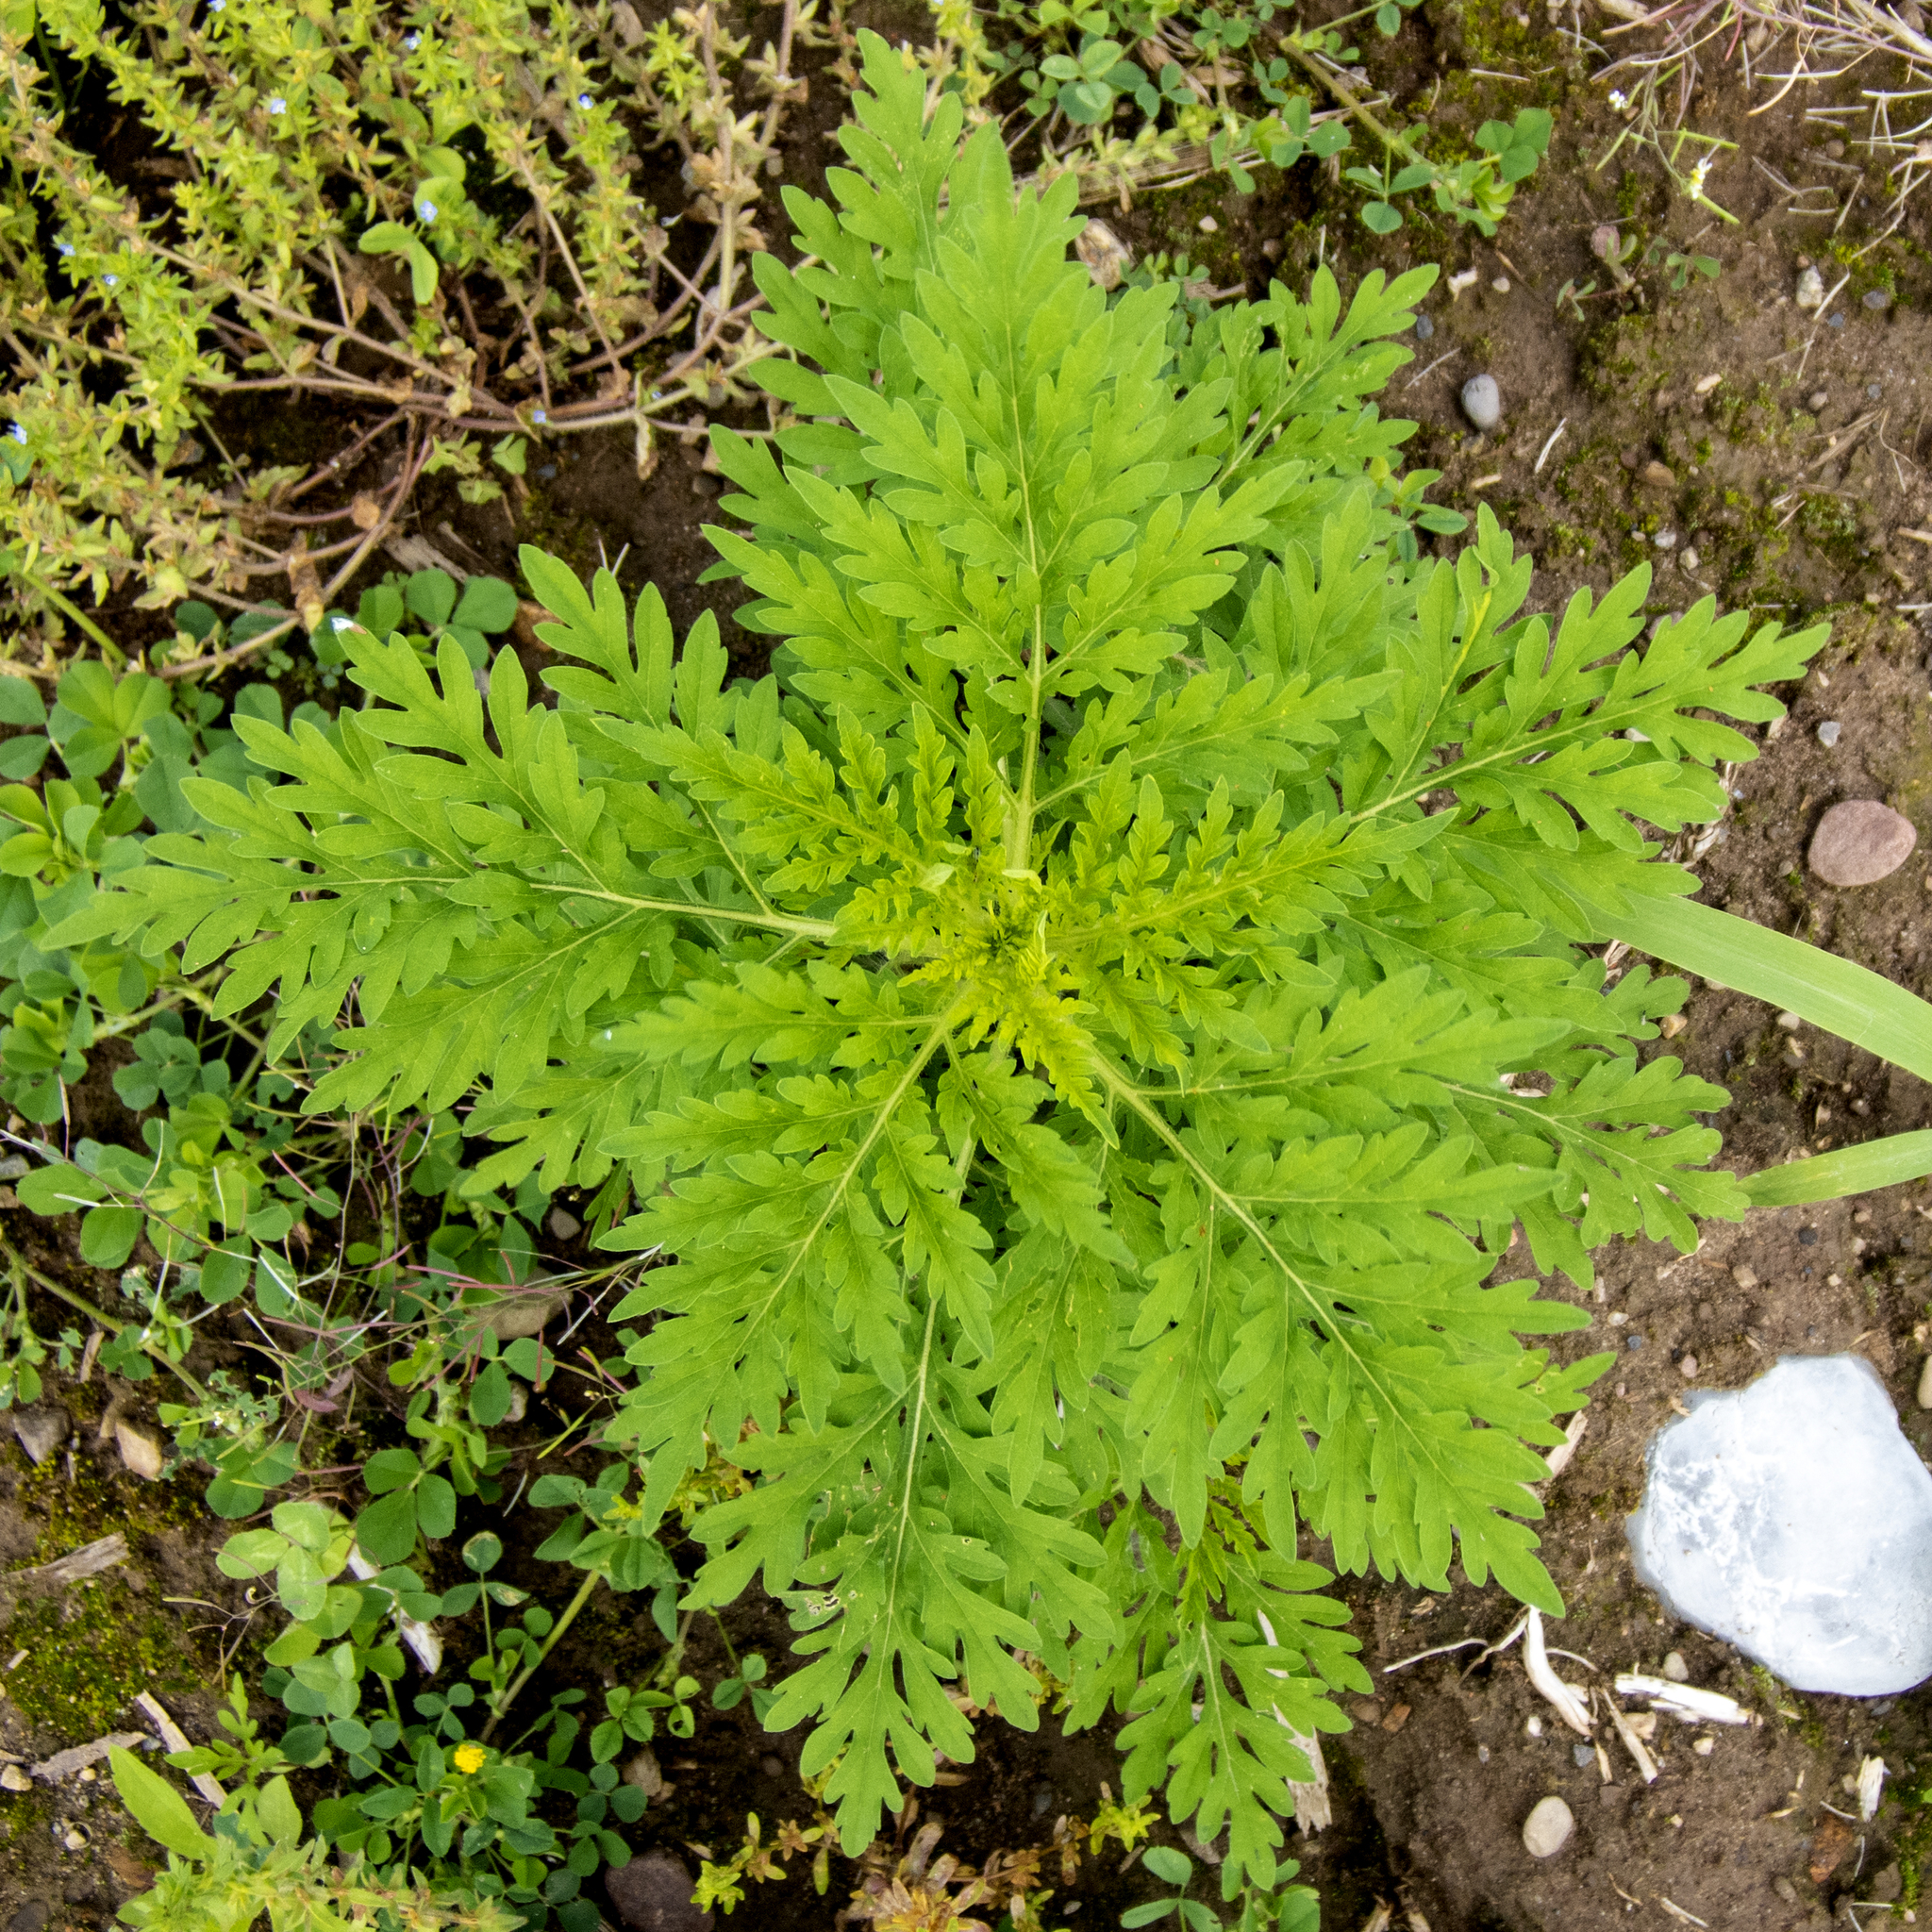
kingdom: Plantae
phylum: Tracheophyta
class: Magnoliopsida
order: Asterales
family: Asteraceae
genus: Ambrosia
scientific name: Ambrosia artemisiifolia
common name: Annual ragweed
